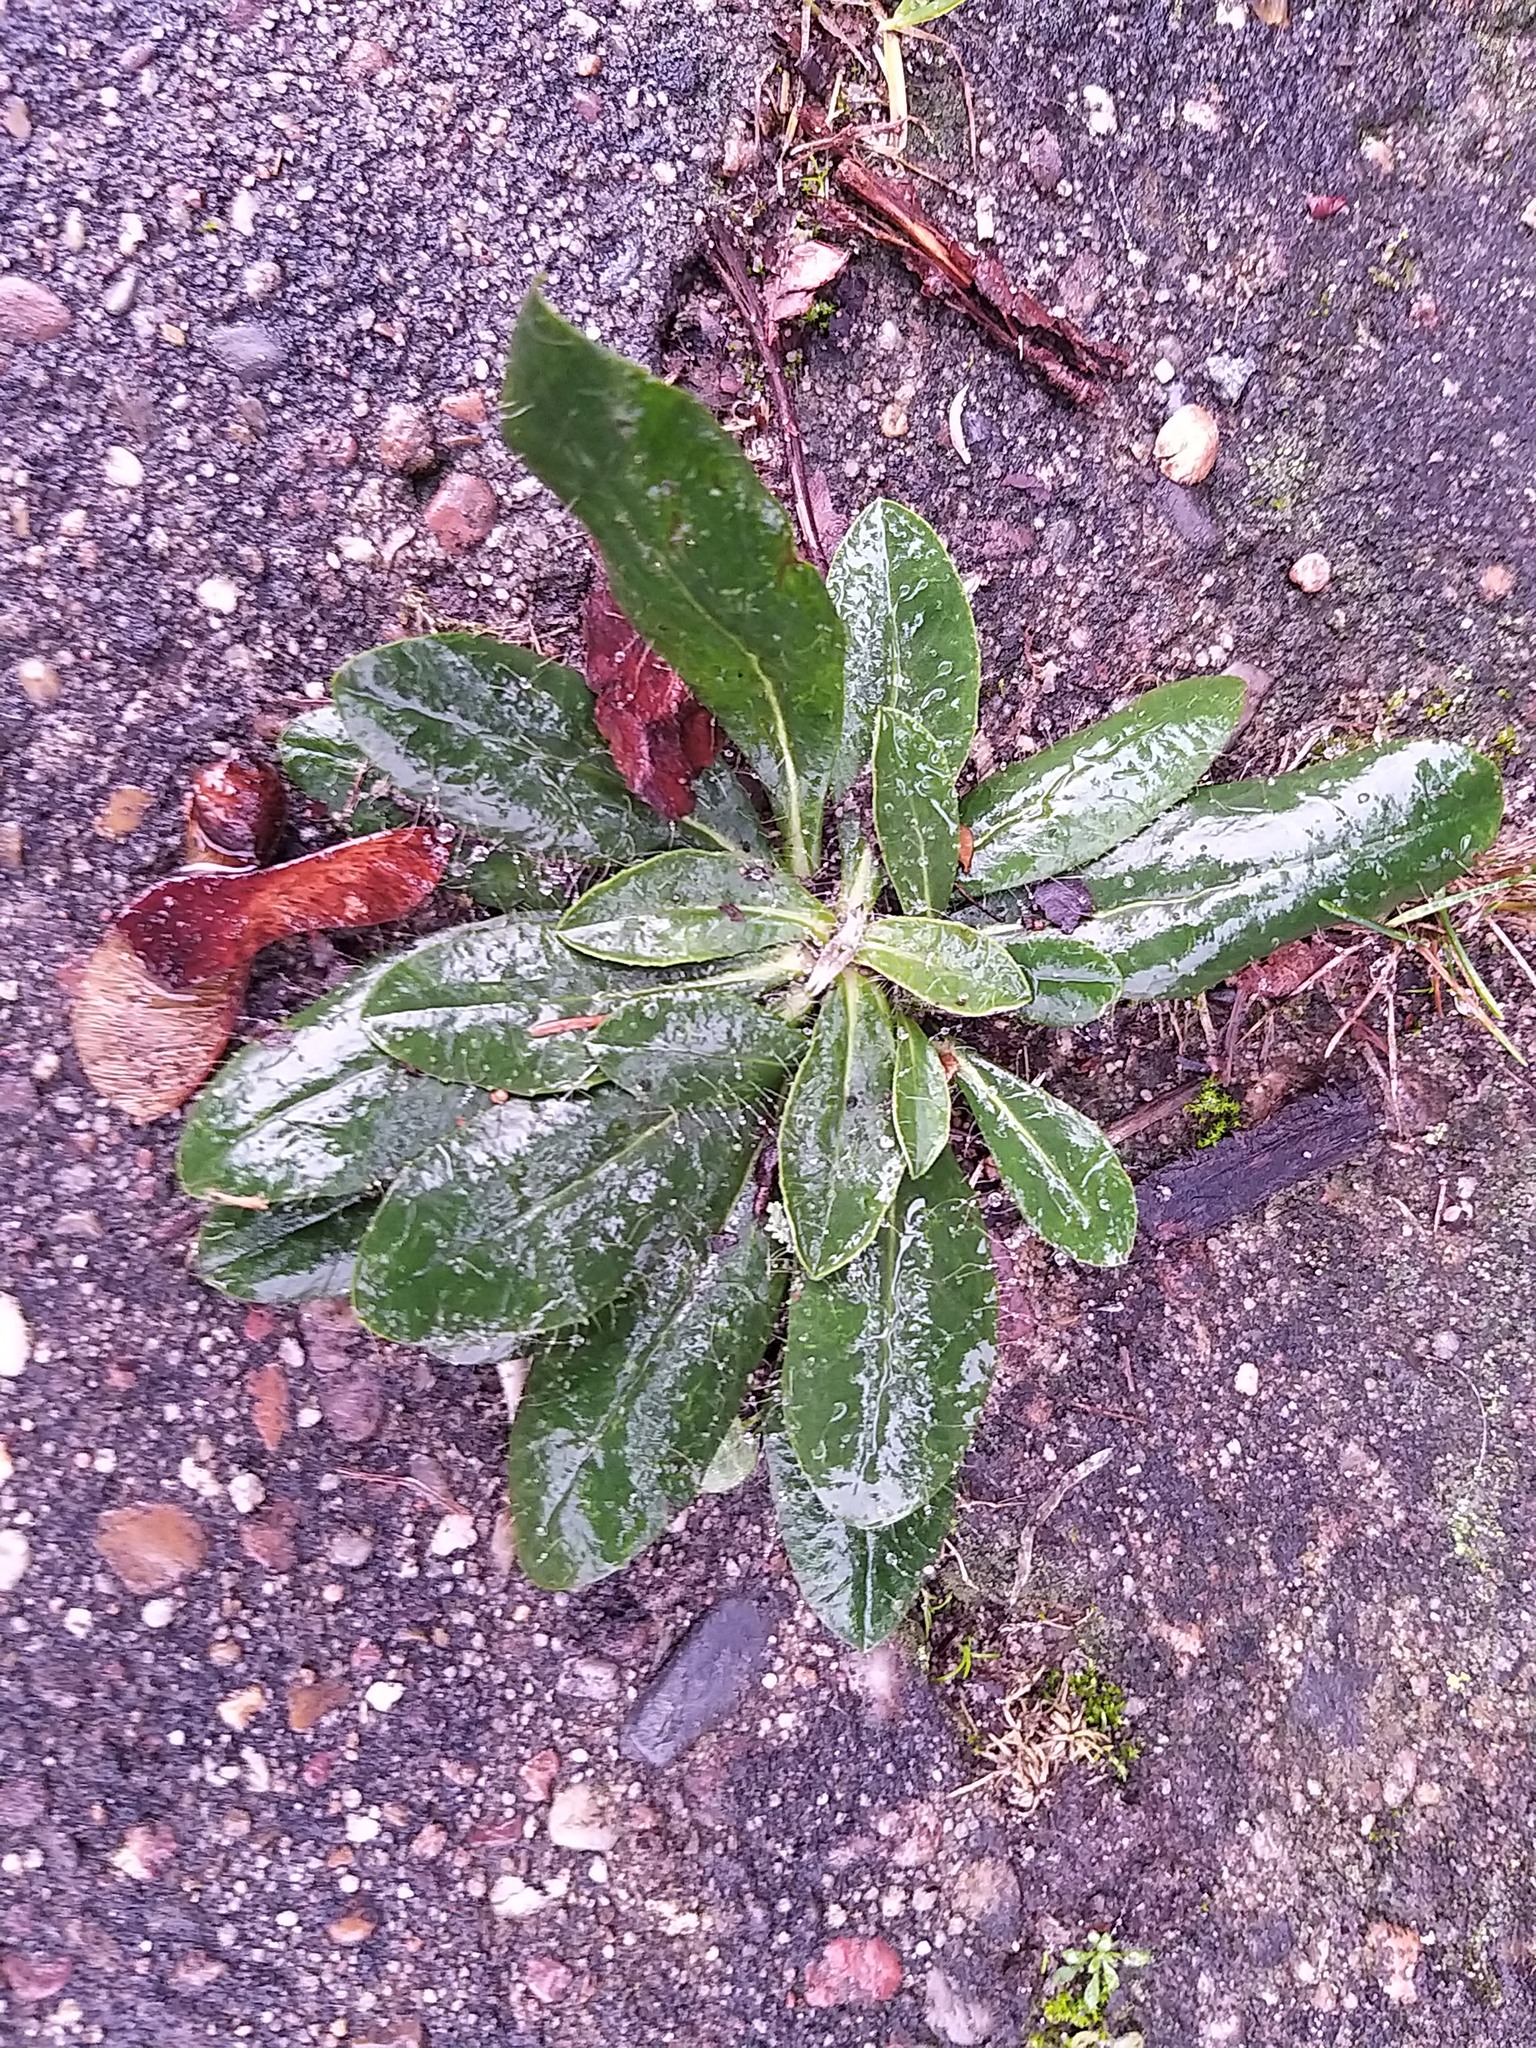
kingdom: Plantae
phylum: Tracheophyta
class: Magnoliopsida
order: Asterales
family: Asteraceae
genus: Pilosella
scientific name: Pilosella officinarum
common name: Mouse-ear hawkweed
